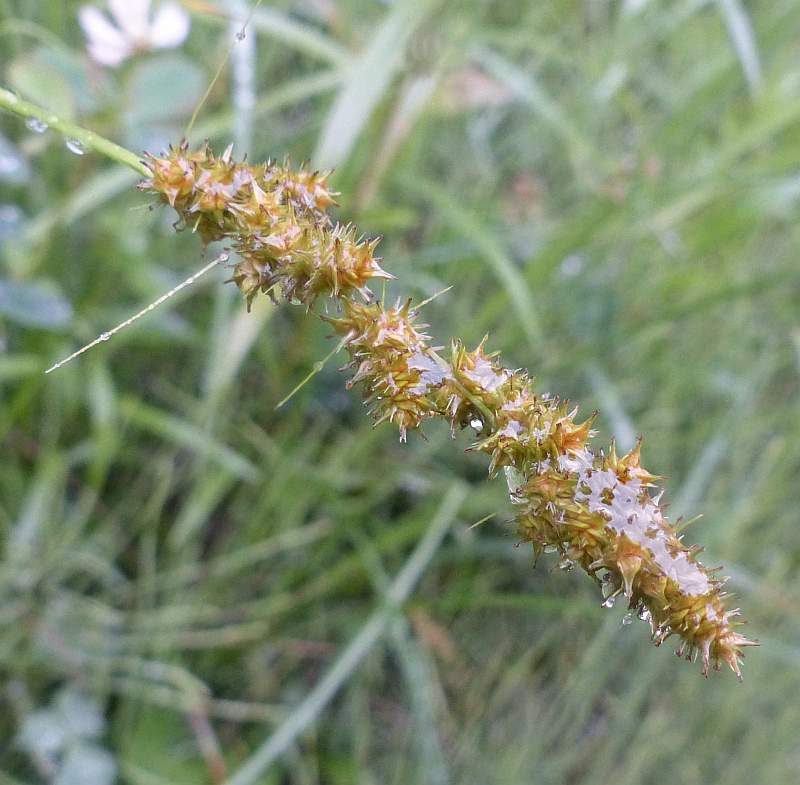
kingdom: Plantae
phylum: Tracheophyta
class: Liliopsida
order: Poales
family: Cyperaceae
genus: Carex
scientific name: Carex vulpinoidea
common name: American fox-sedge
